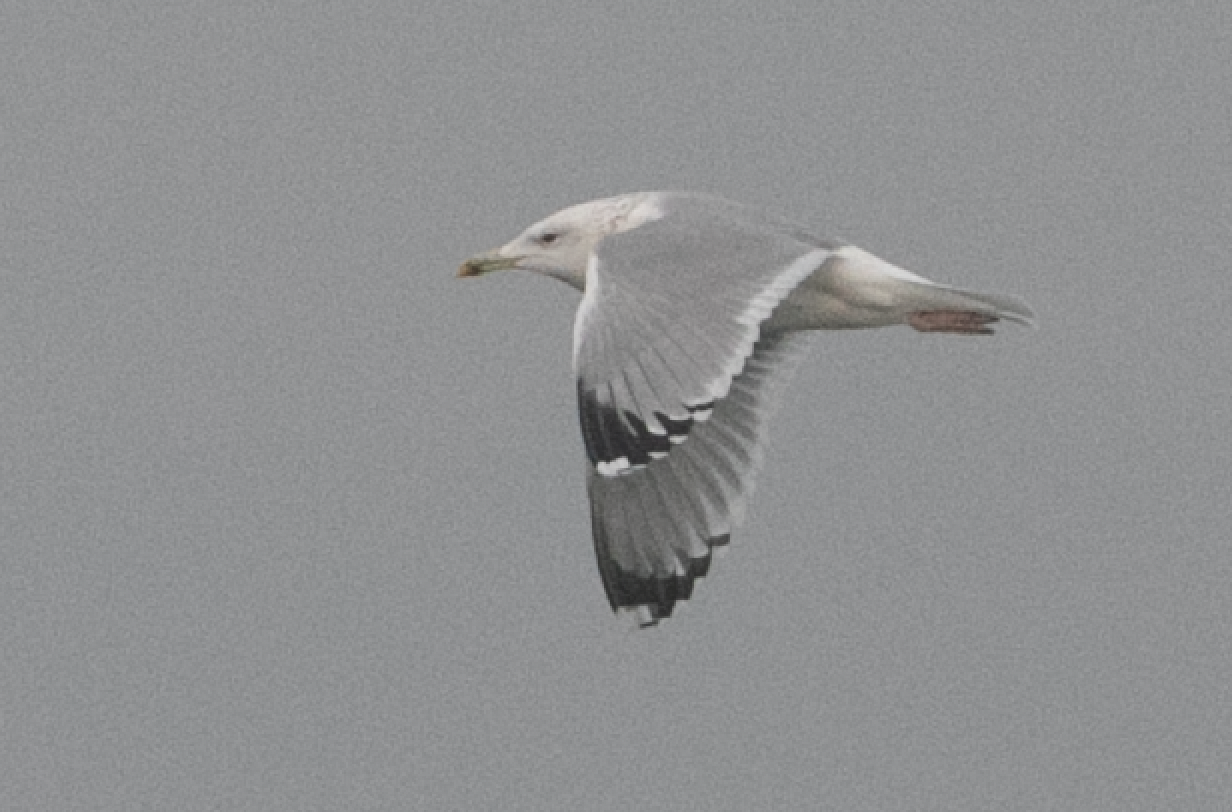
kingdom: Animalia
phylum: Chordata
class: Aves
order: Charadriiformes
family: Laridae
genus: Larus
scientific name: Larus cachinnans
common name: Caspian gull
